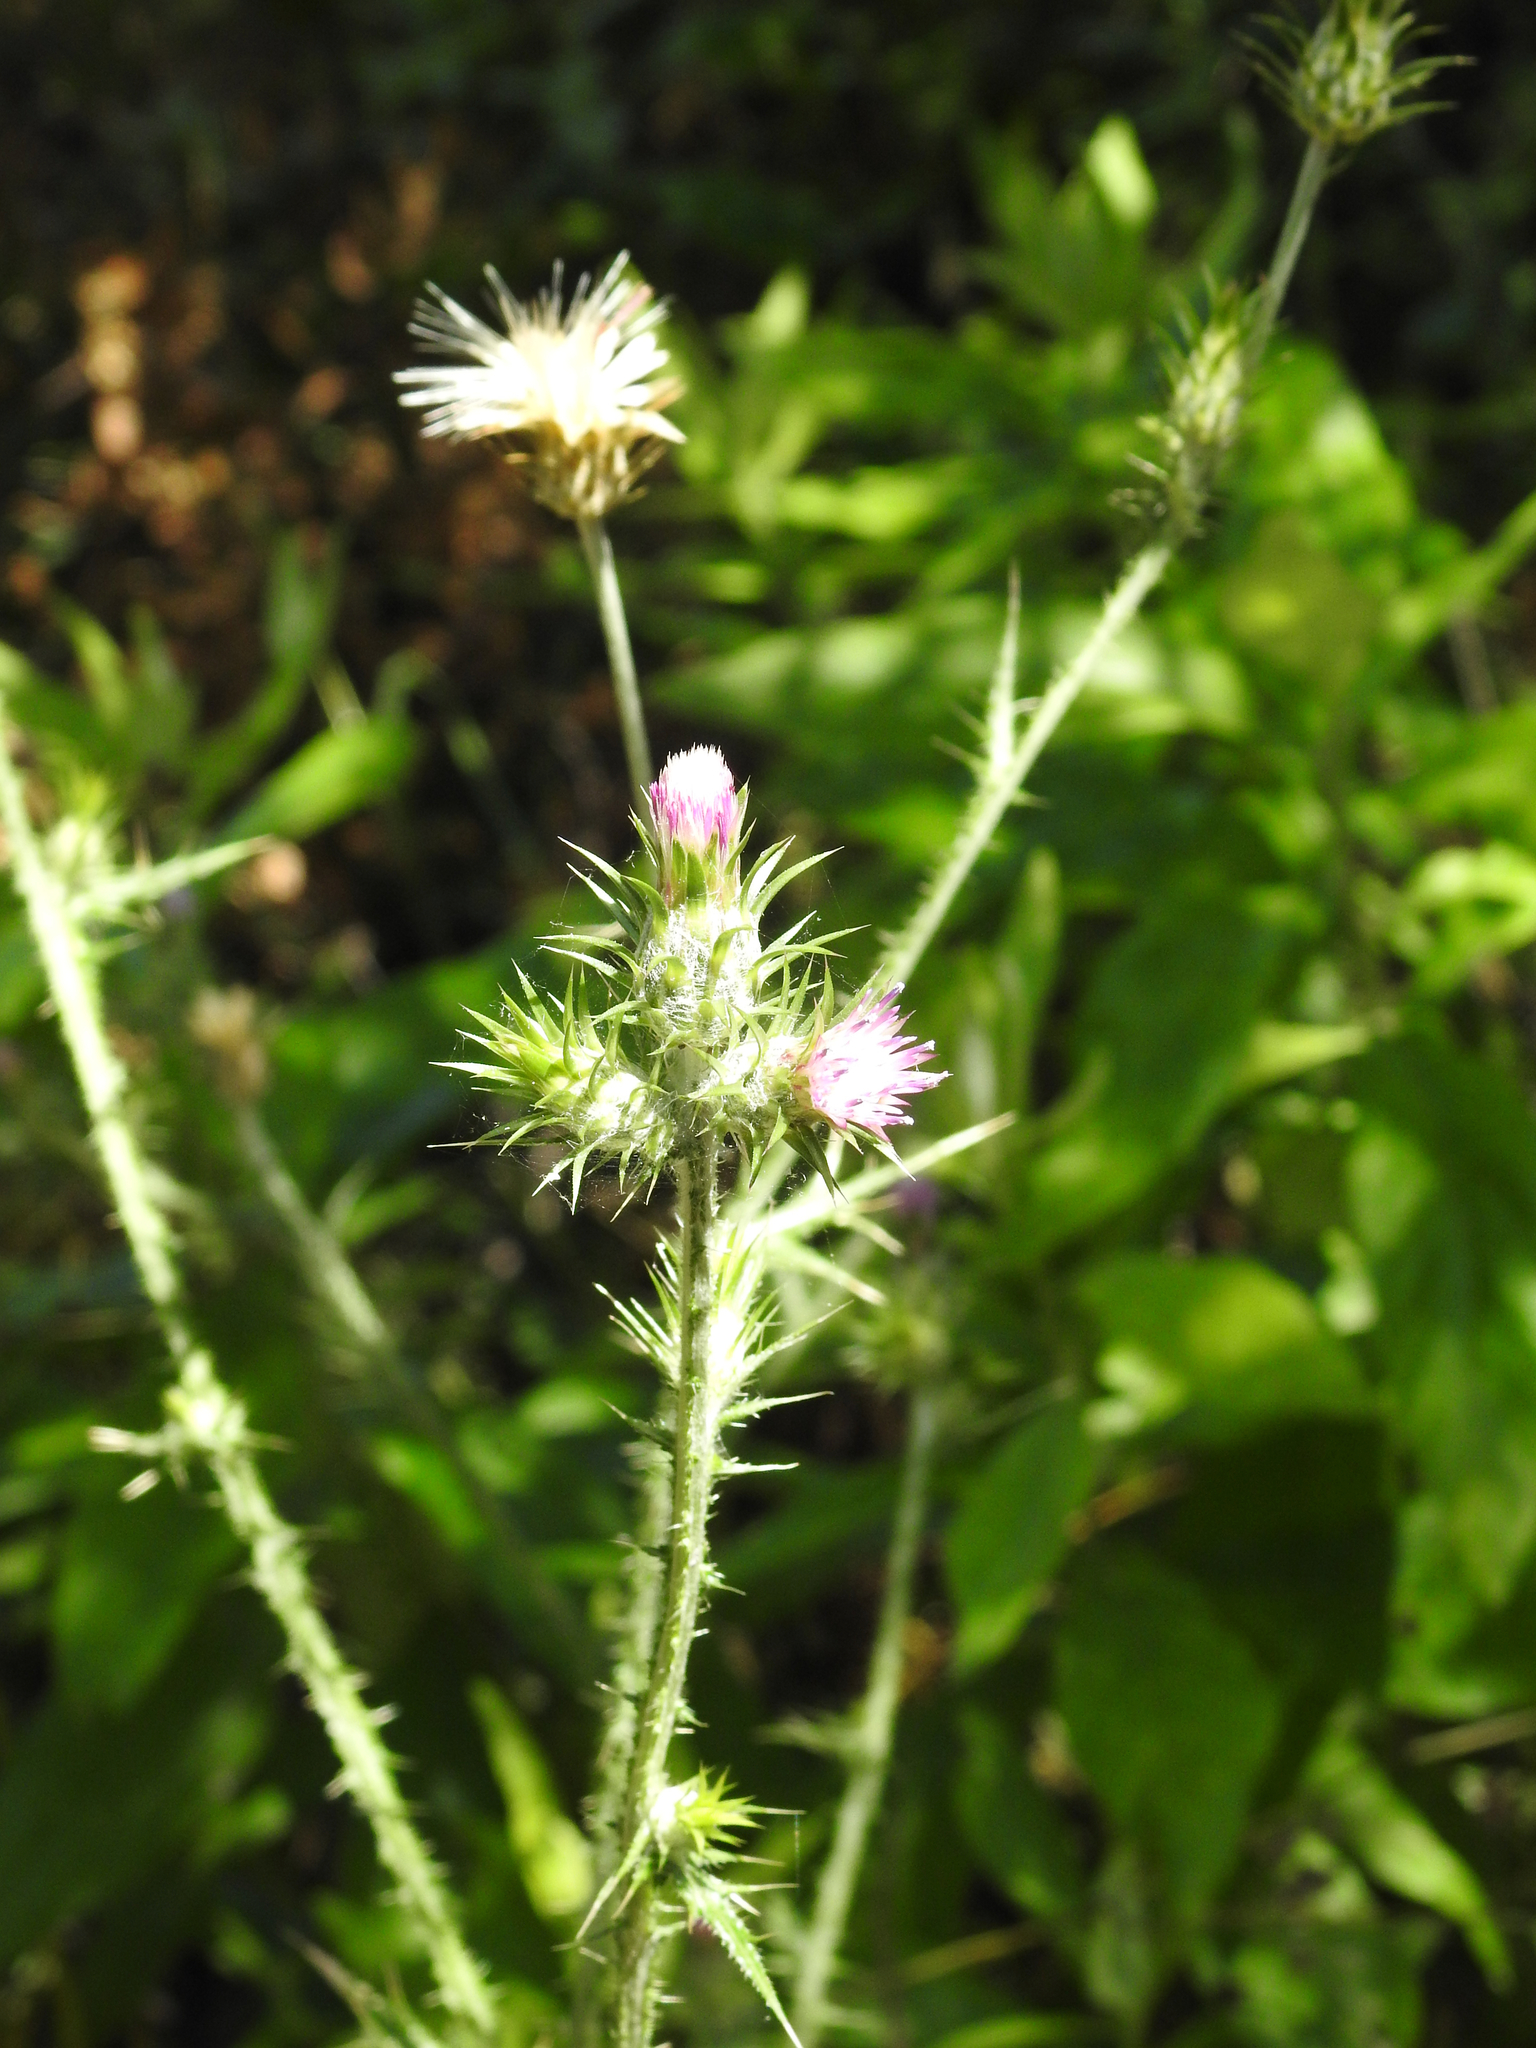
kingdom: Plantae
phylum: Tracheophyta
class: Magnoliopsida
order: Asterales
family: Asteraceae
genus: Carduus
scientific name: Carduus pycnocephalus
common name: Plymouth thistle
